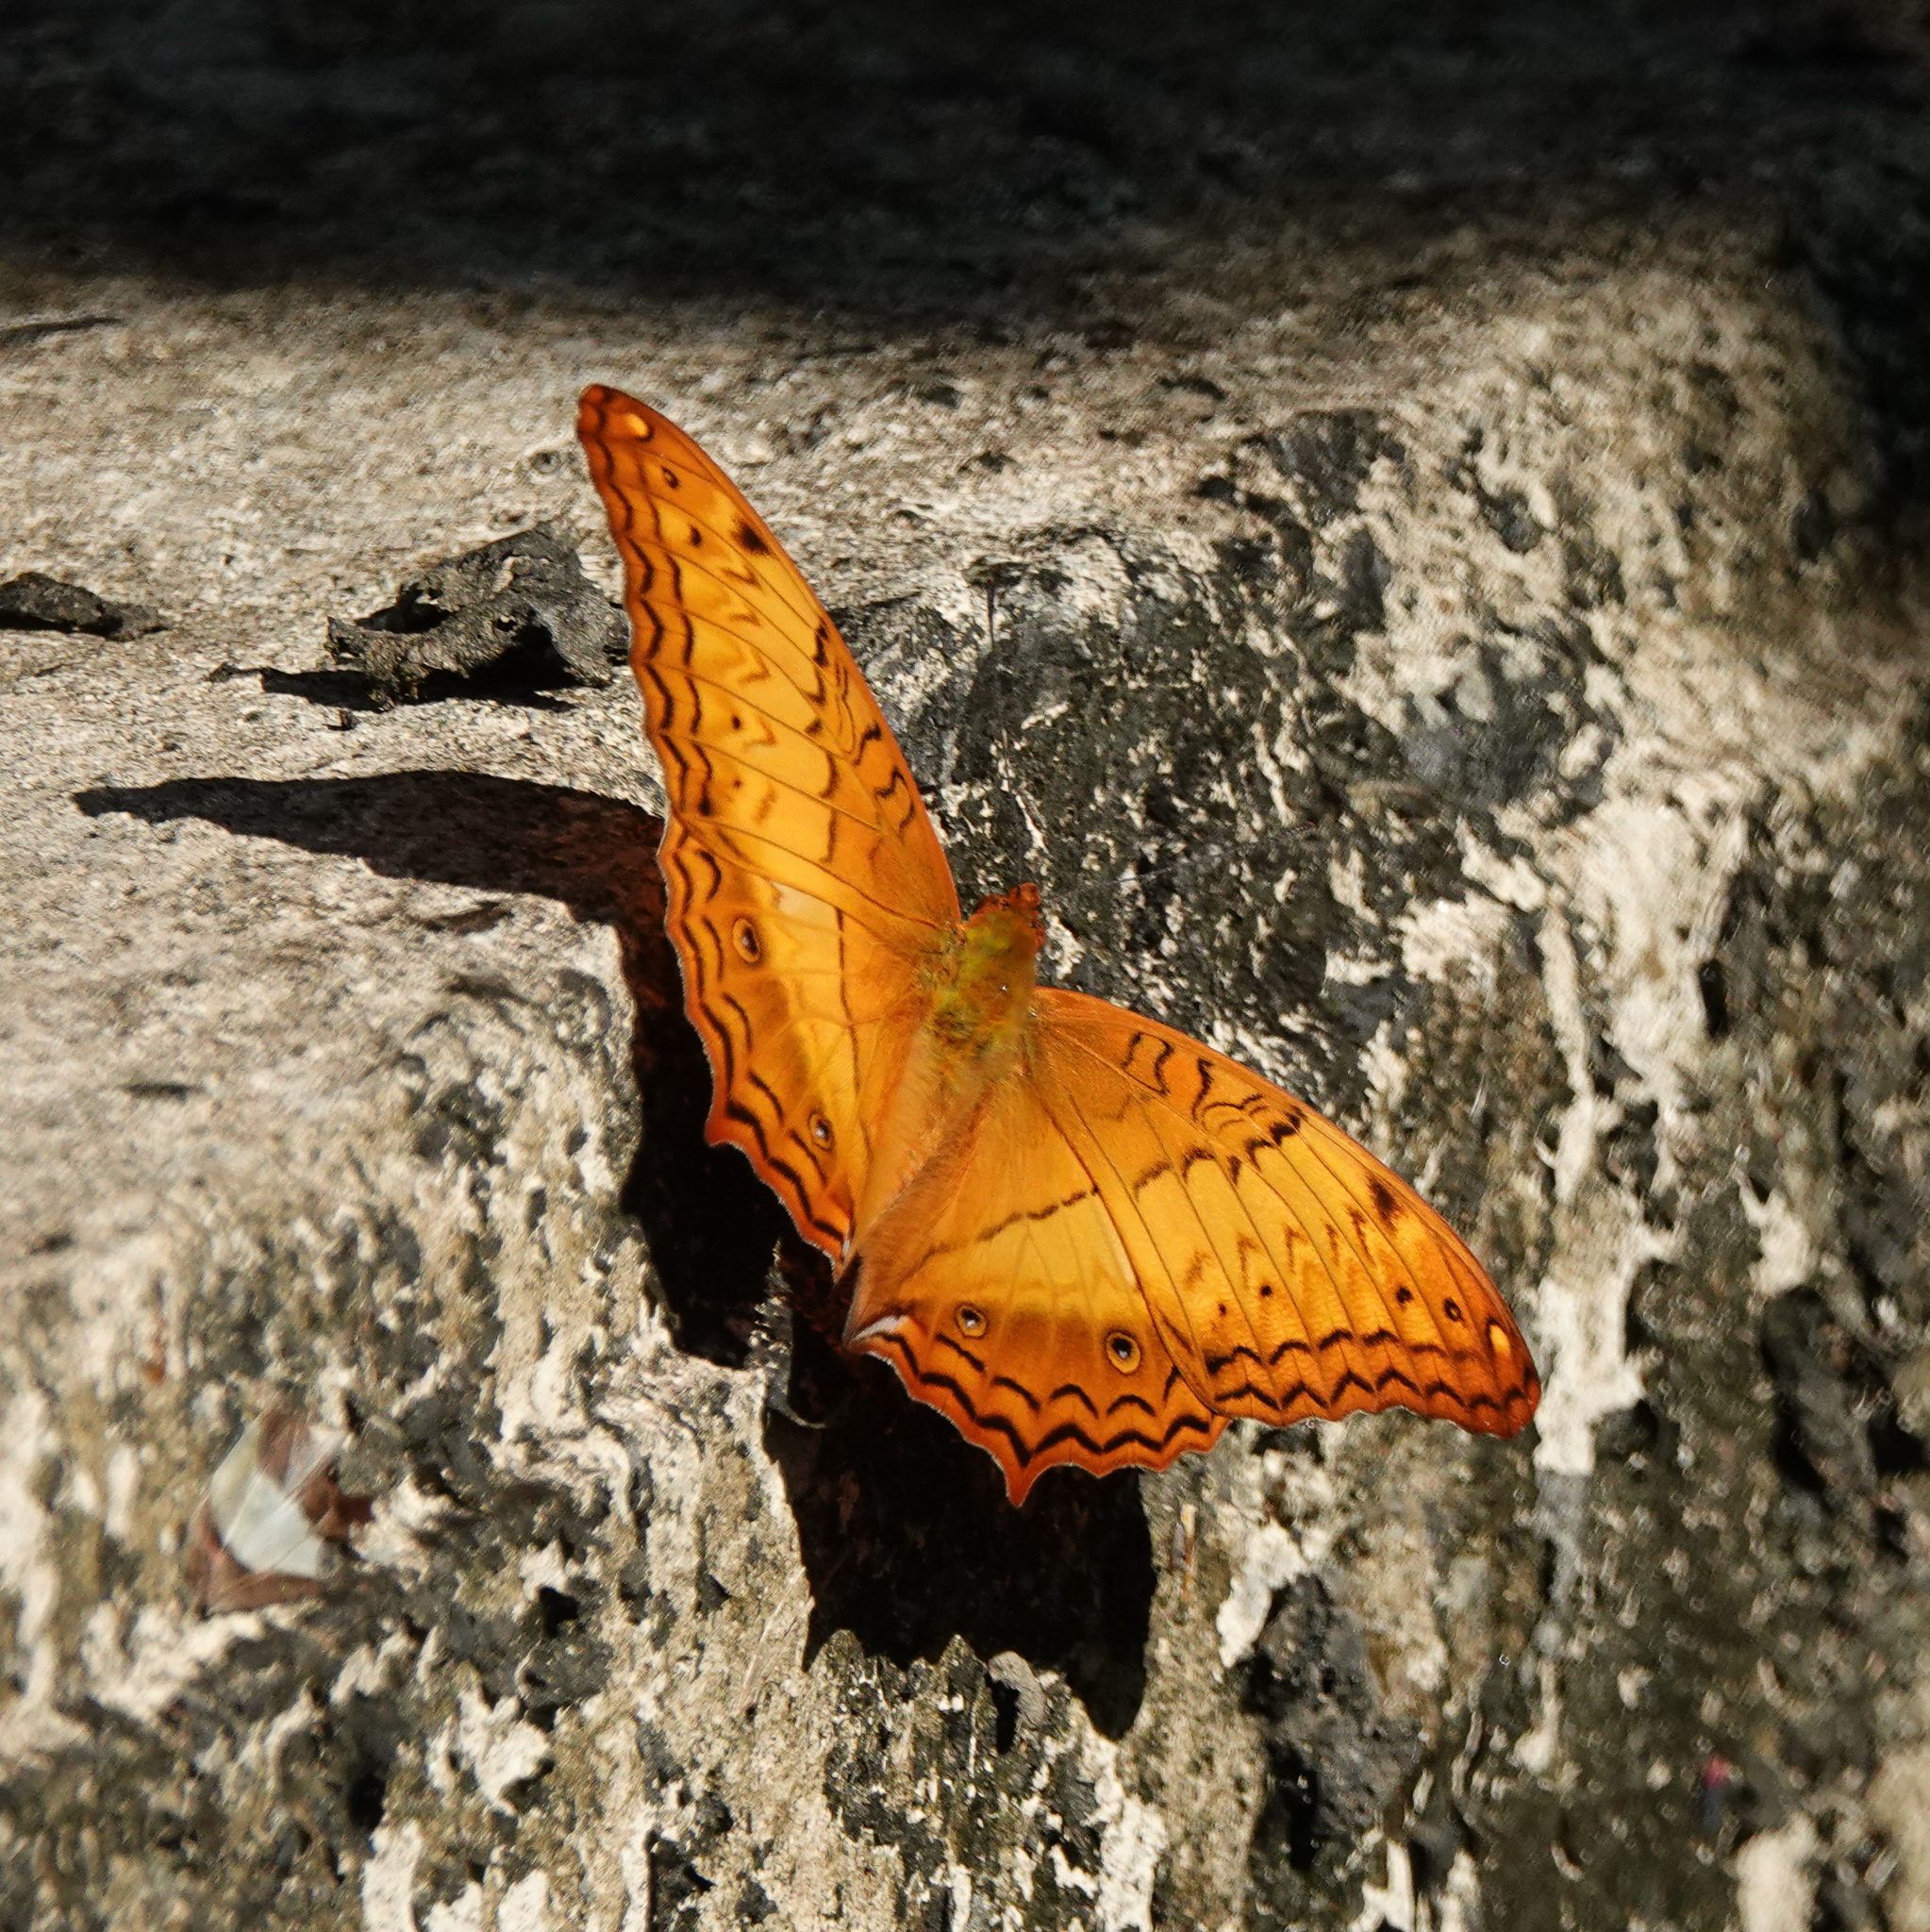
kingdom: Animalia
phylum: Arthropoda
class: Insecta
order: Lepidoptera
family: Nymphalidae
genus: Vindula
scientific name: Vindula erota
